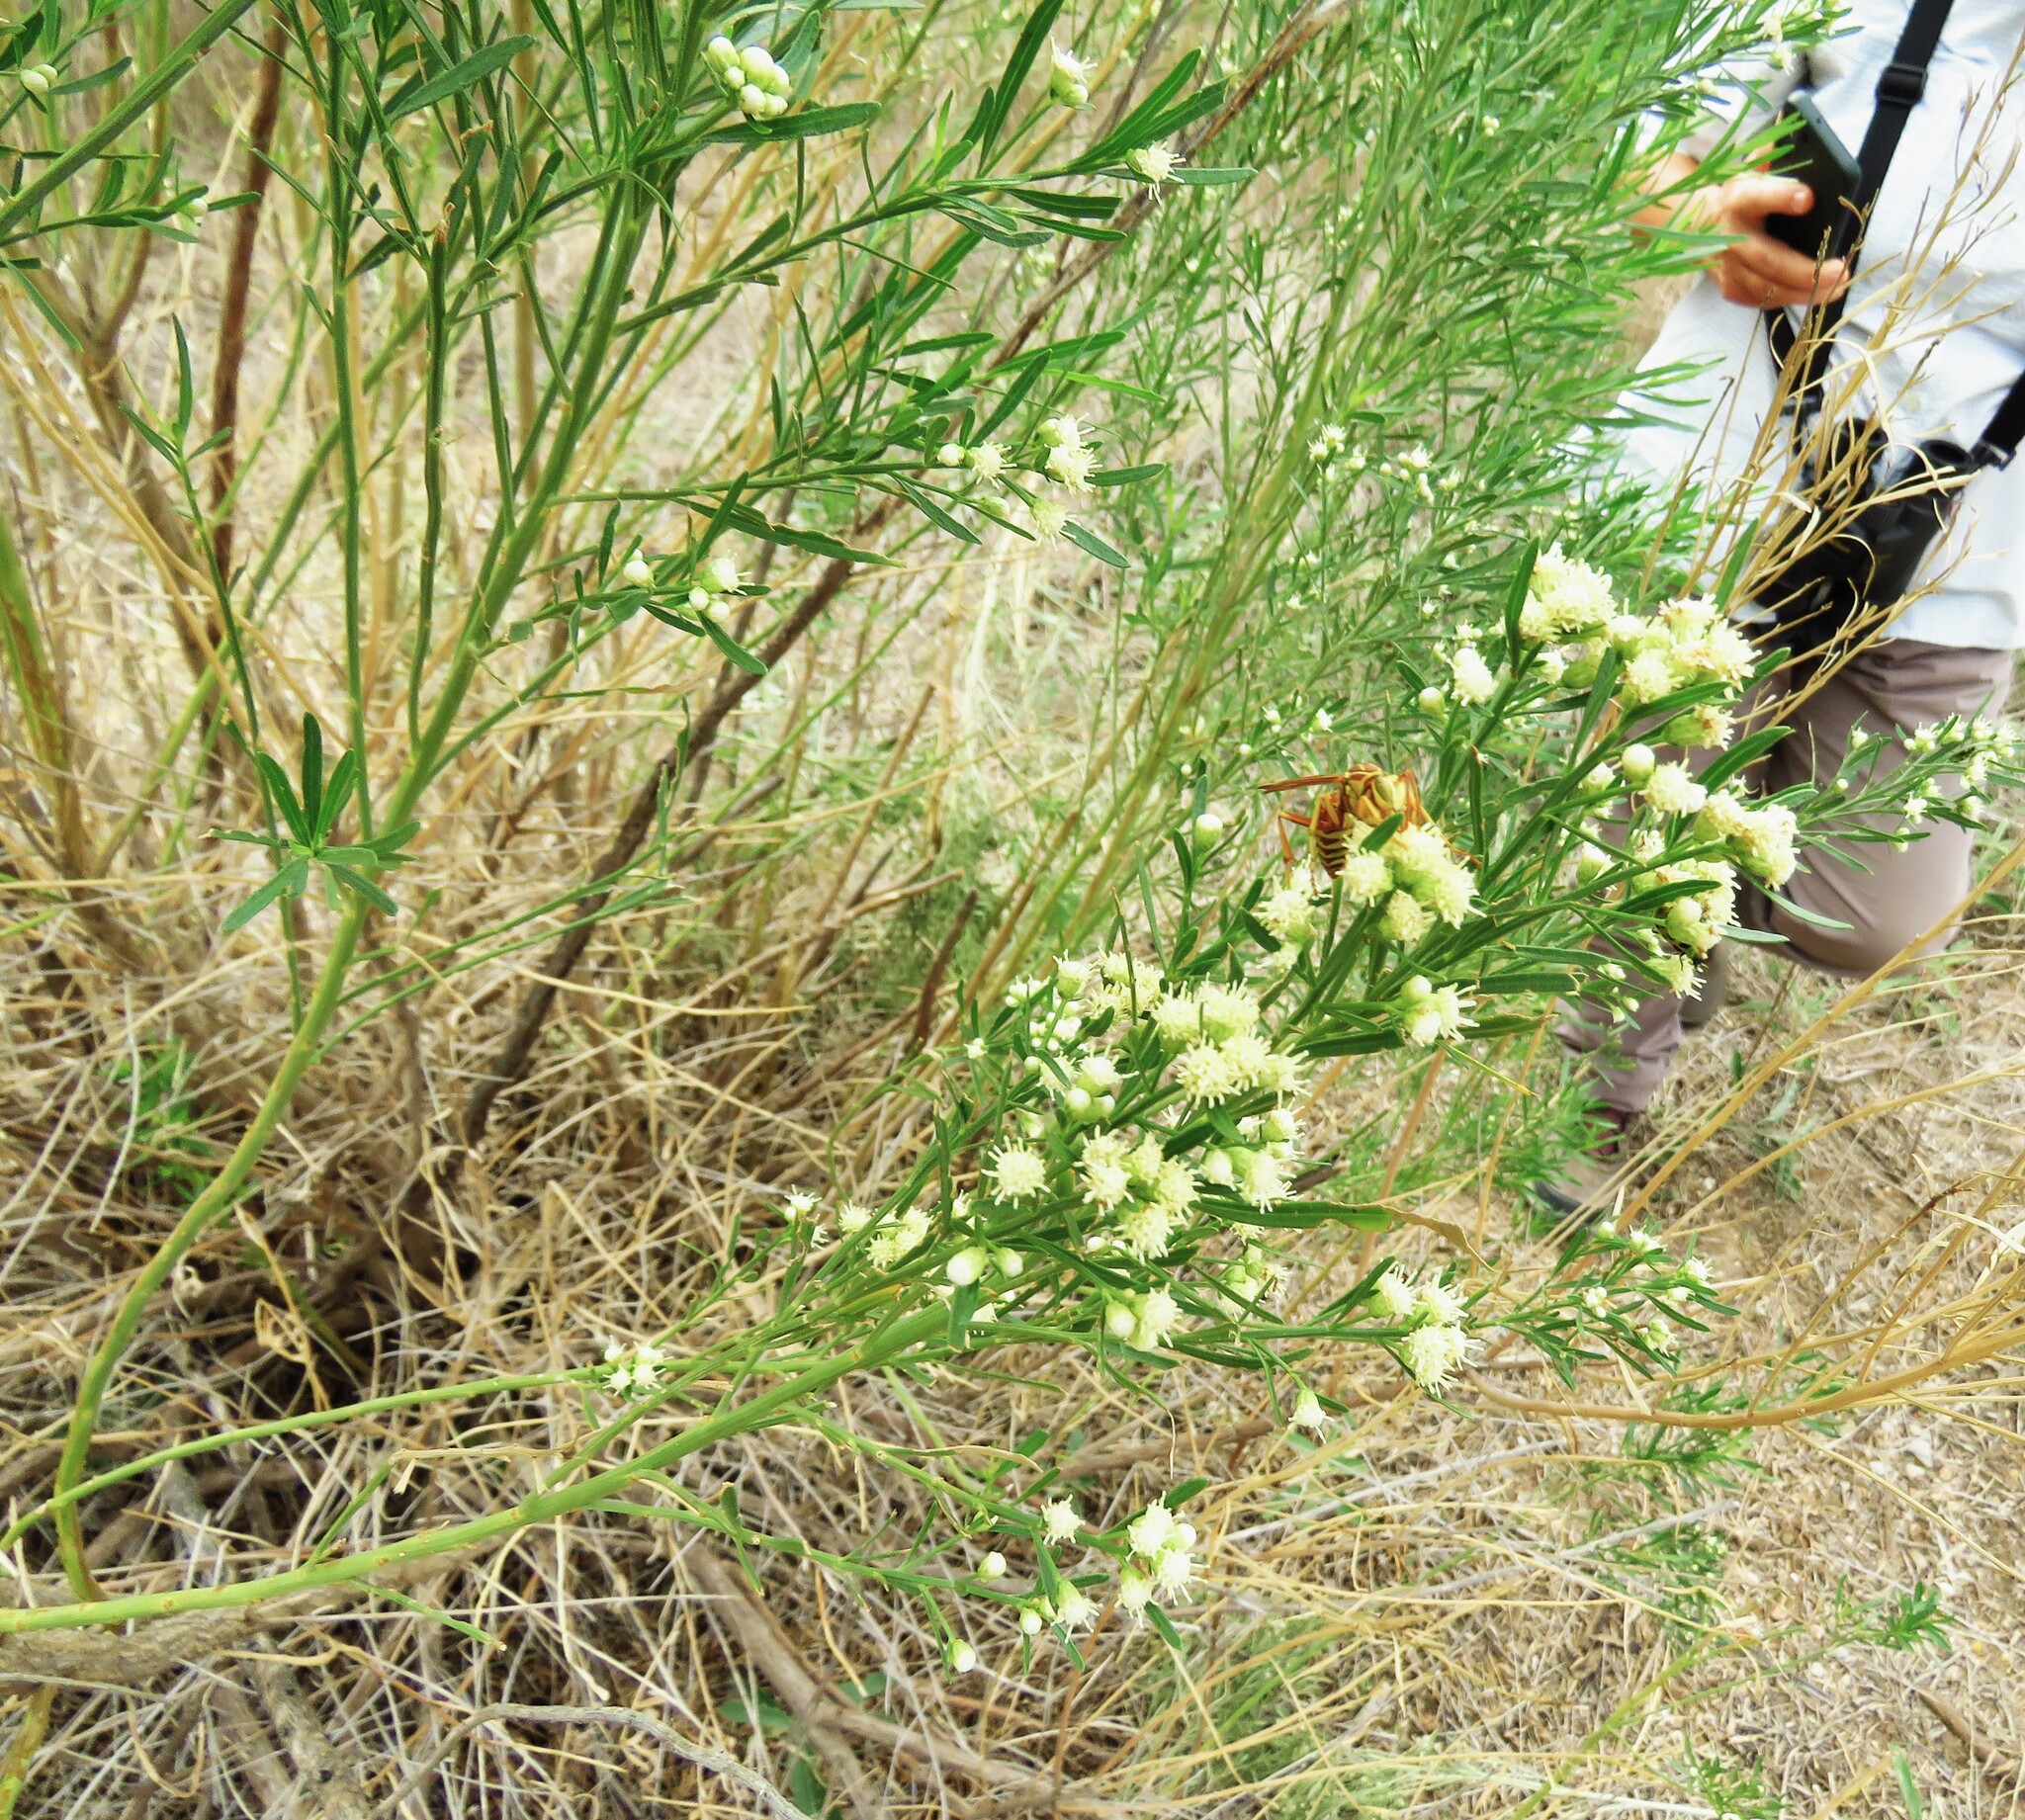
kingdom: Plantae
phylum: Tracheophyta
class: Magnoliopsida
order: Asterales
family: Asteraceae
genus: Baccharis
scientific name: Baccharis neglecta
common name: Roosevelt-weed
